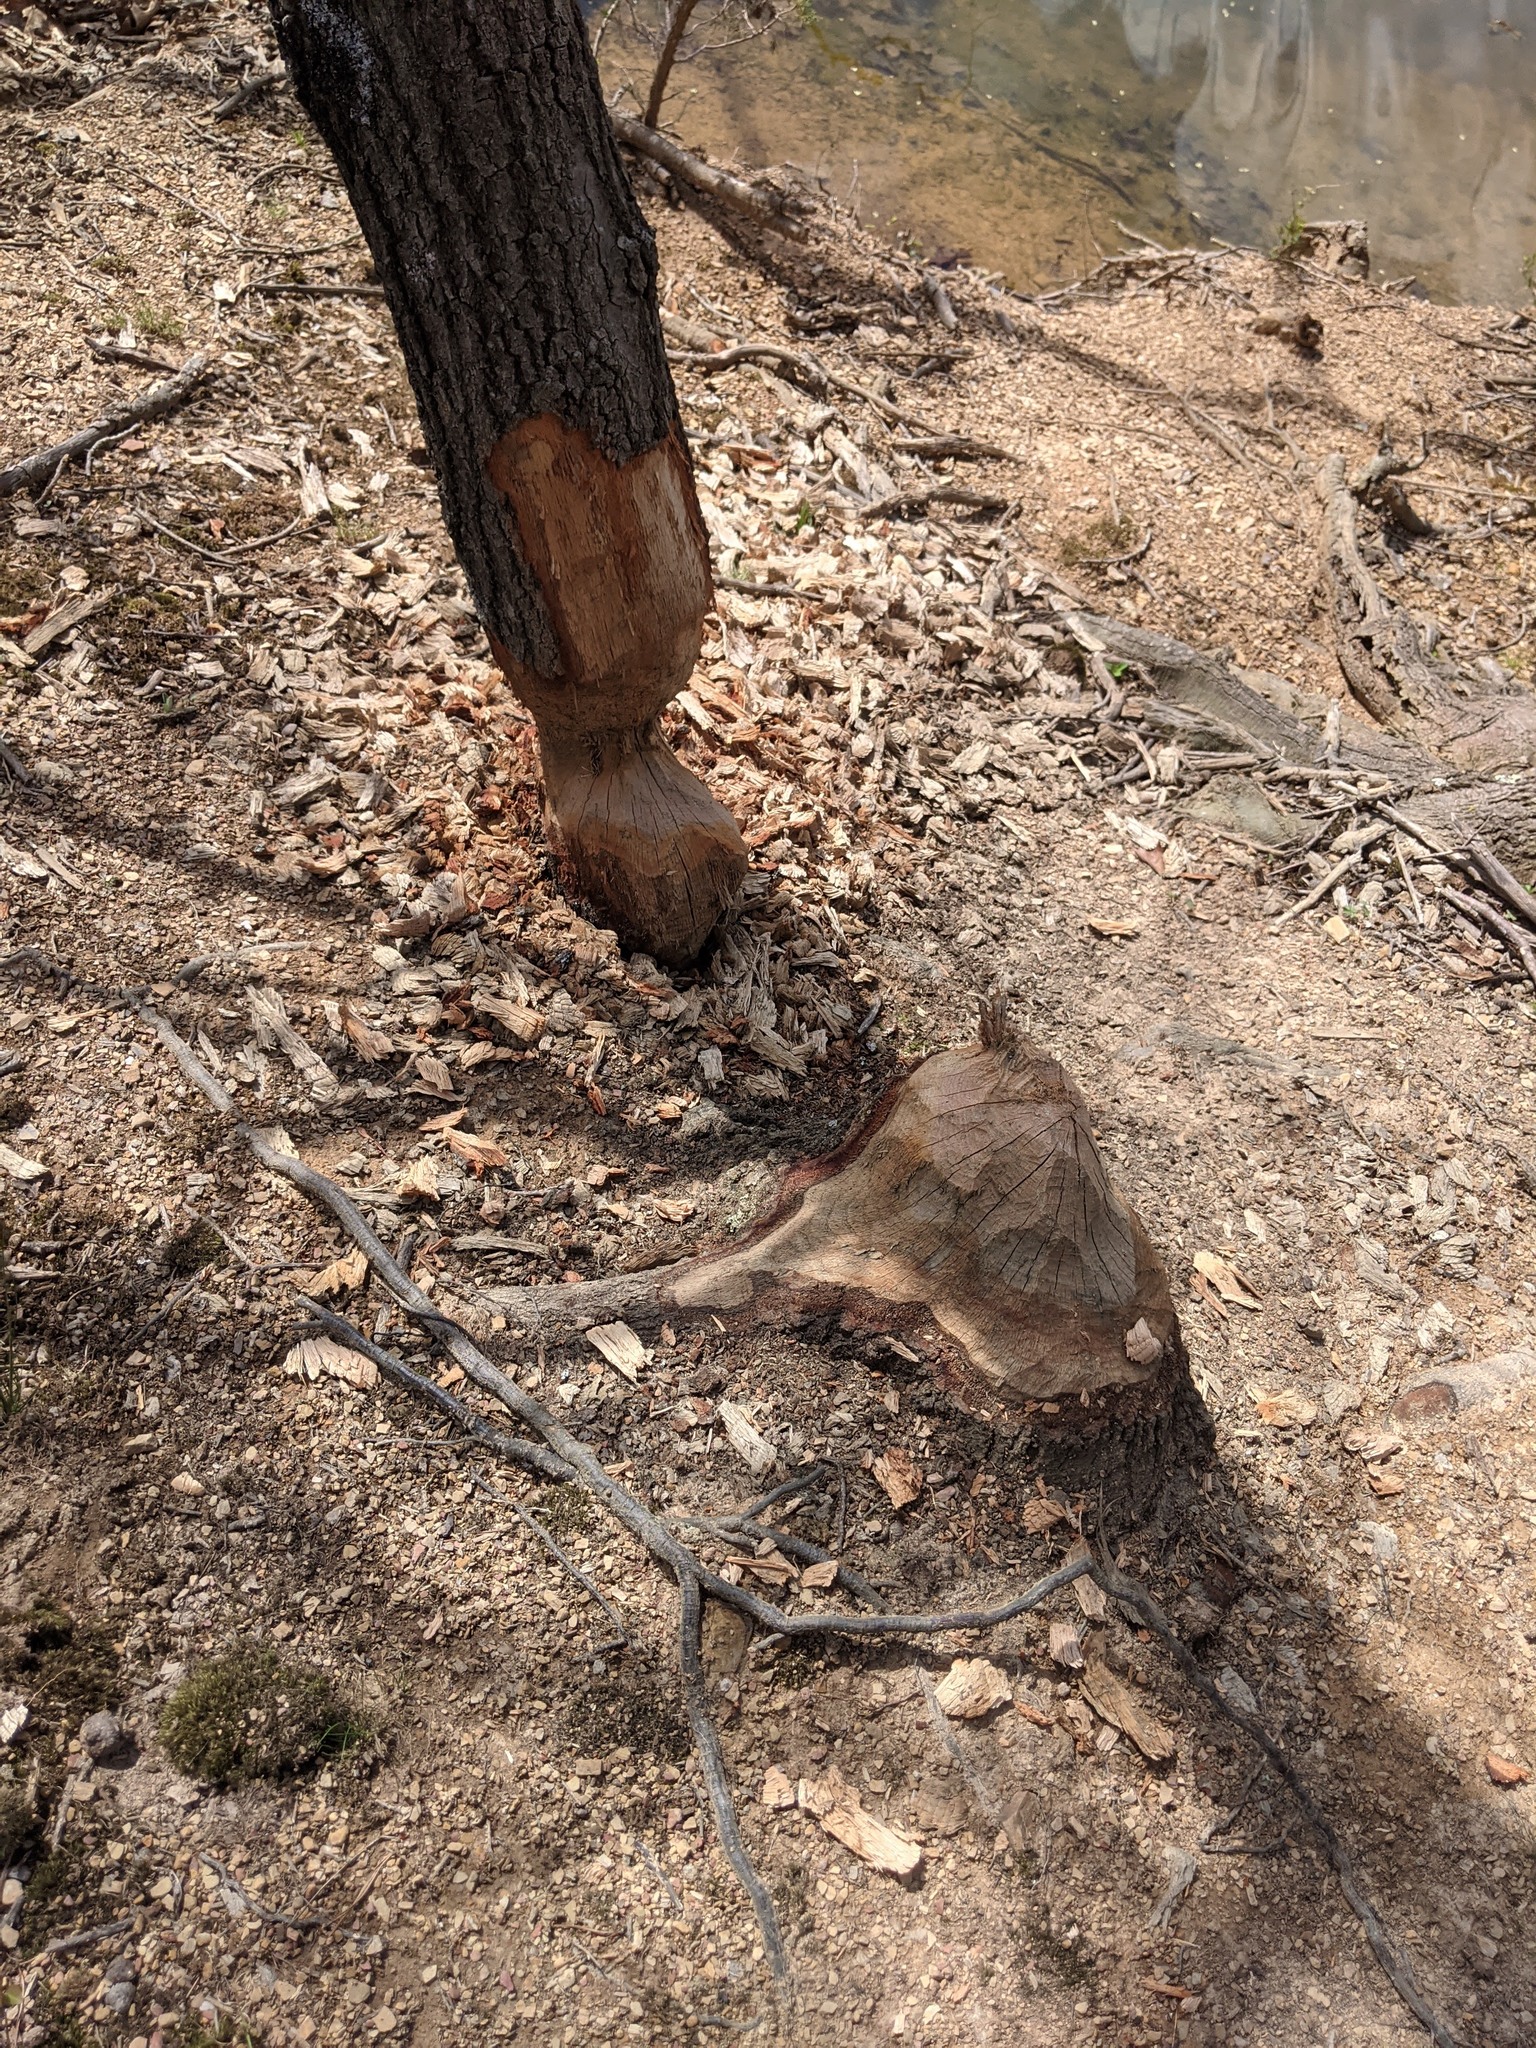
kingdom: Animalia
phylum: Chordata
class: Mammalia
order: Rodentia
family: Castoridae
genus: Castor
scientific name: Castor canadensis
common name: American beaver
